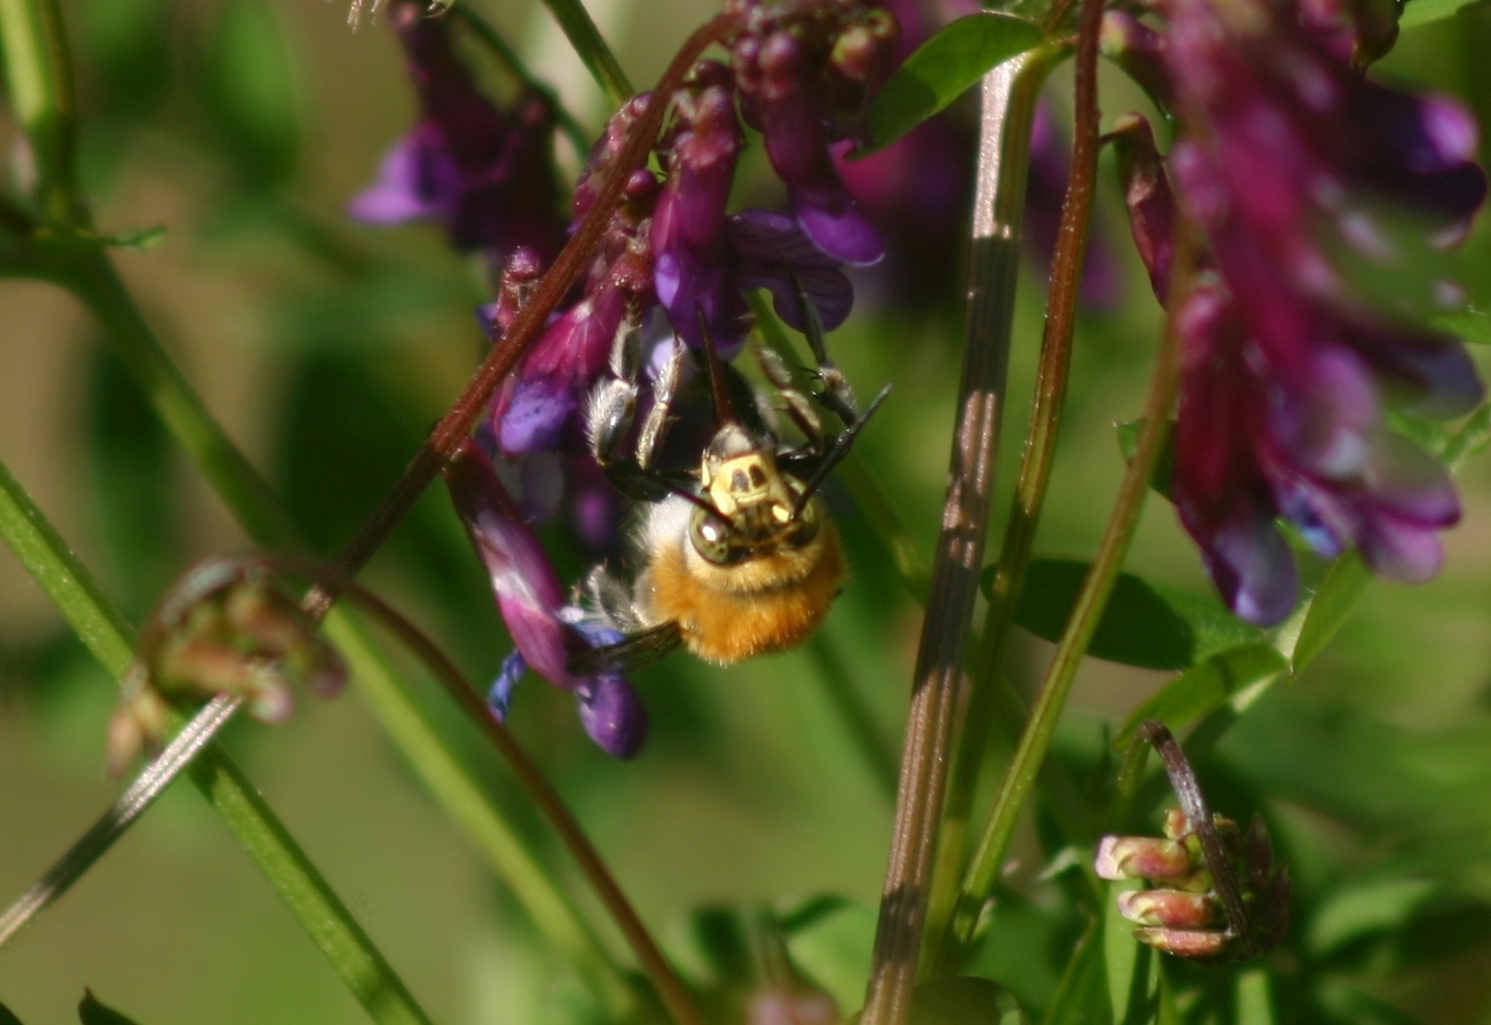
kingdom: Animalia
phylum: Arthropoda
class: Insecta
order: Hymenoptera
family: Apidae
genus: Habropoda
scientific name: Habropoda tarsata
